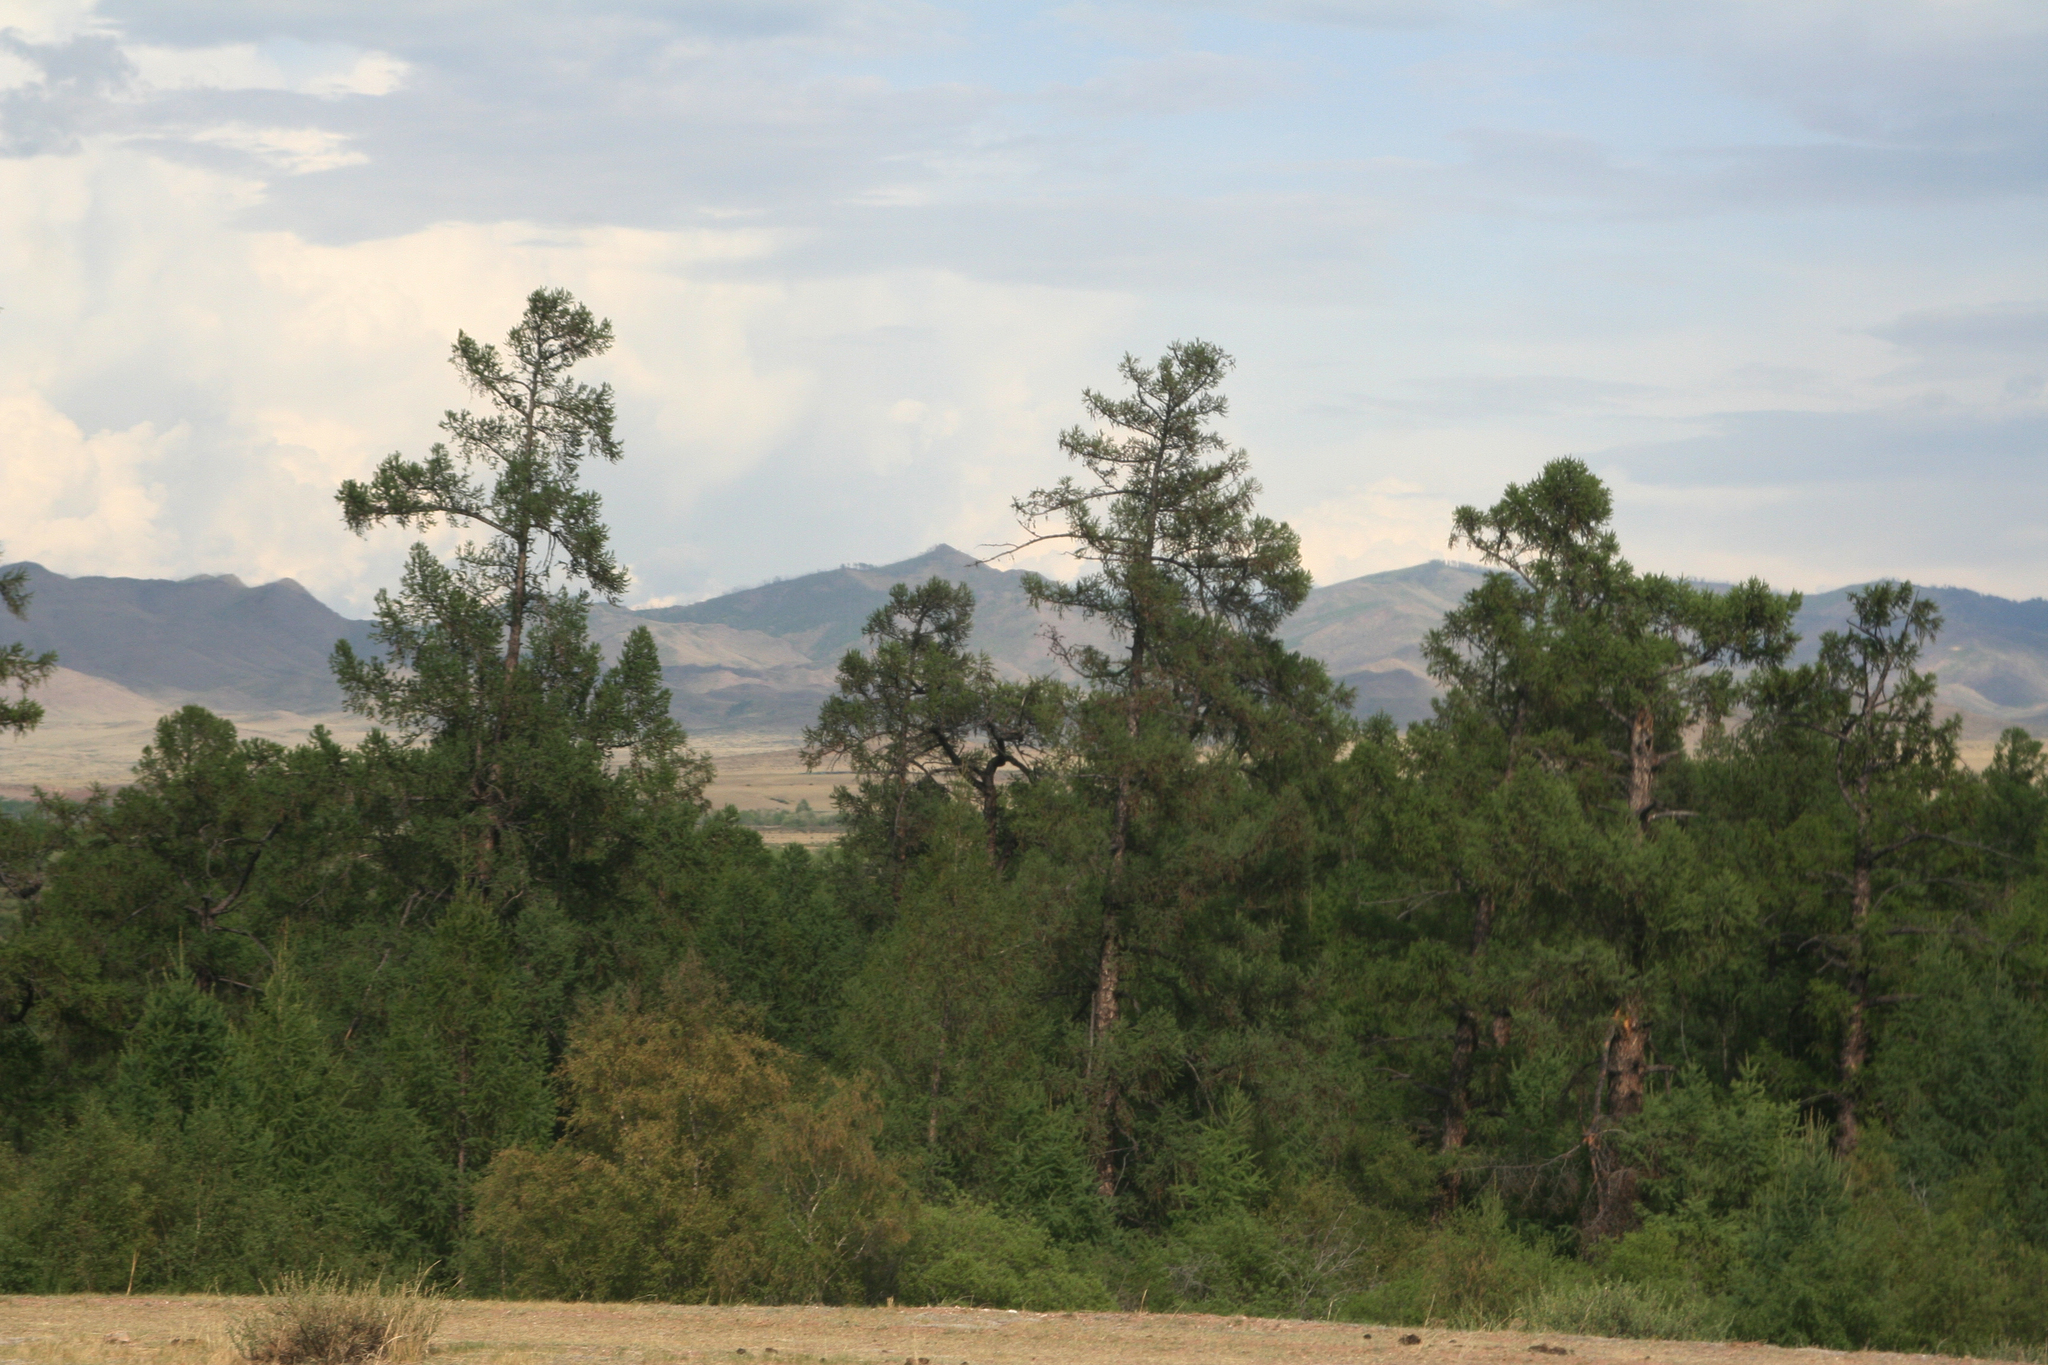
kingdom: Plantae
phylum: Tracheophyta
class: Pinopsida
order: Pinales
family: Pinaceae
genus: Larix
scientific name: Larix sibirica
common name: Siberian larch
